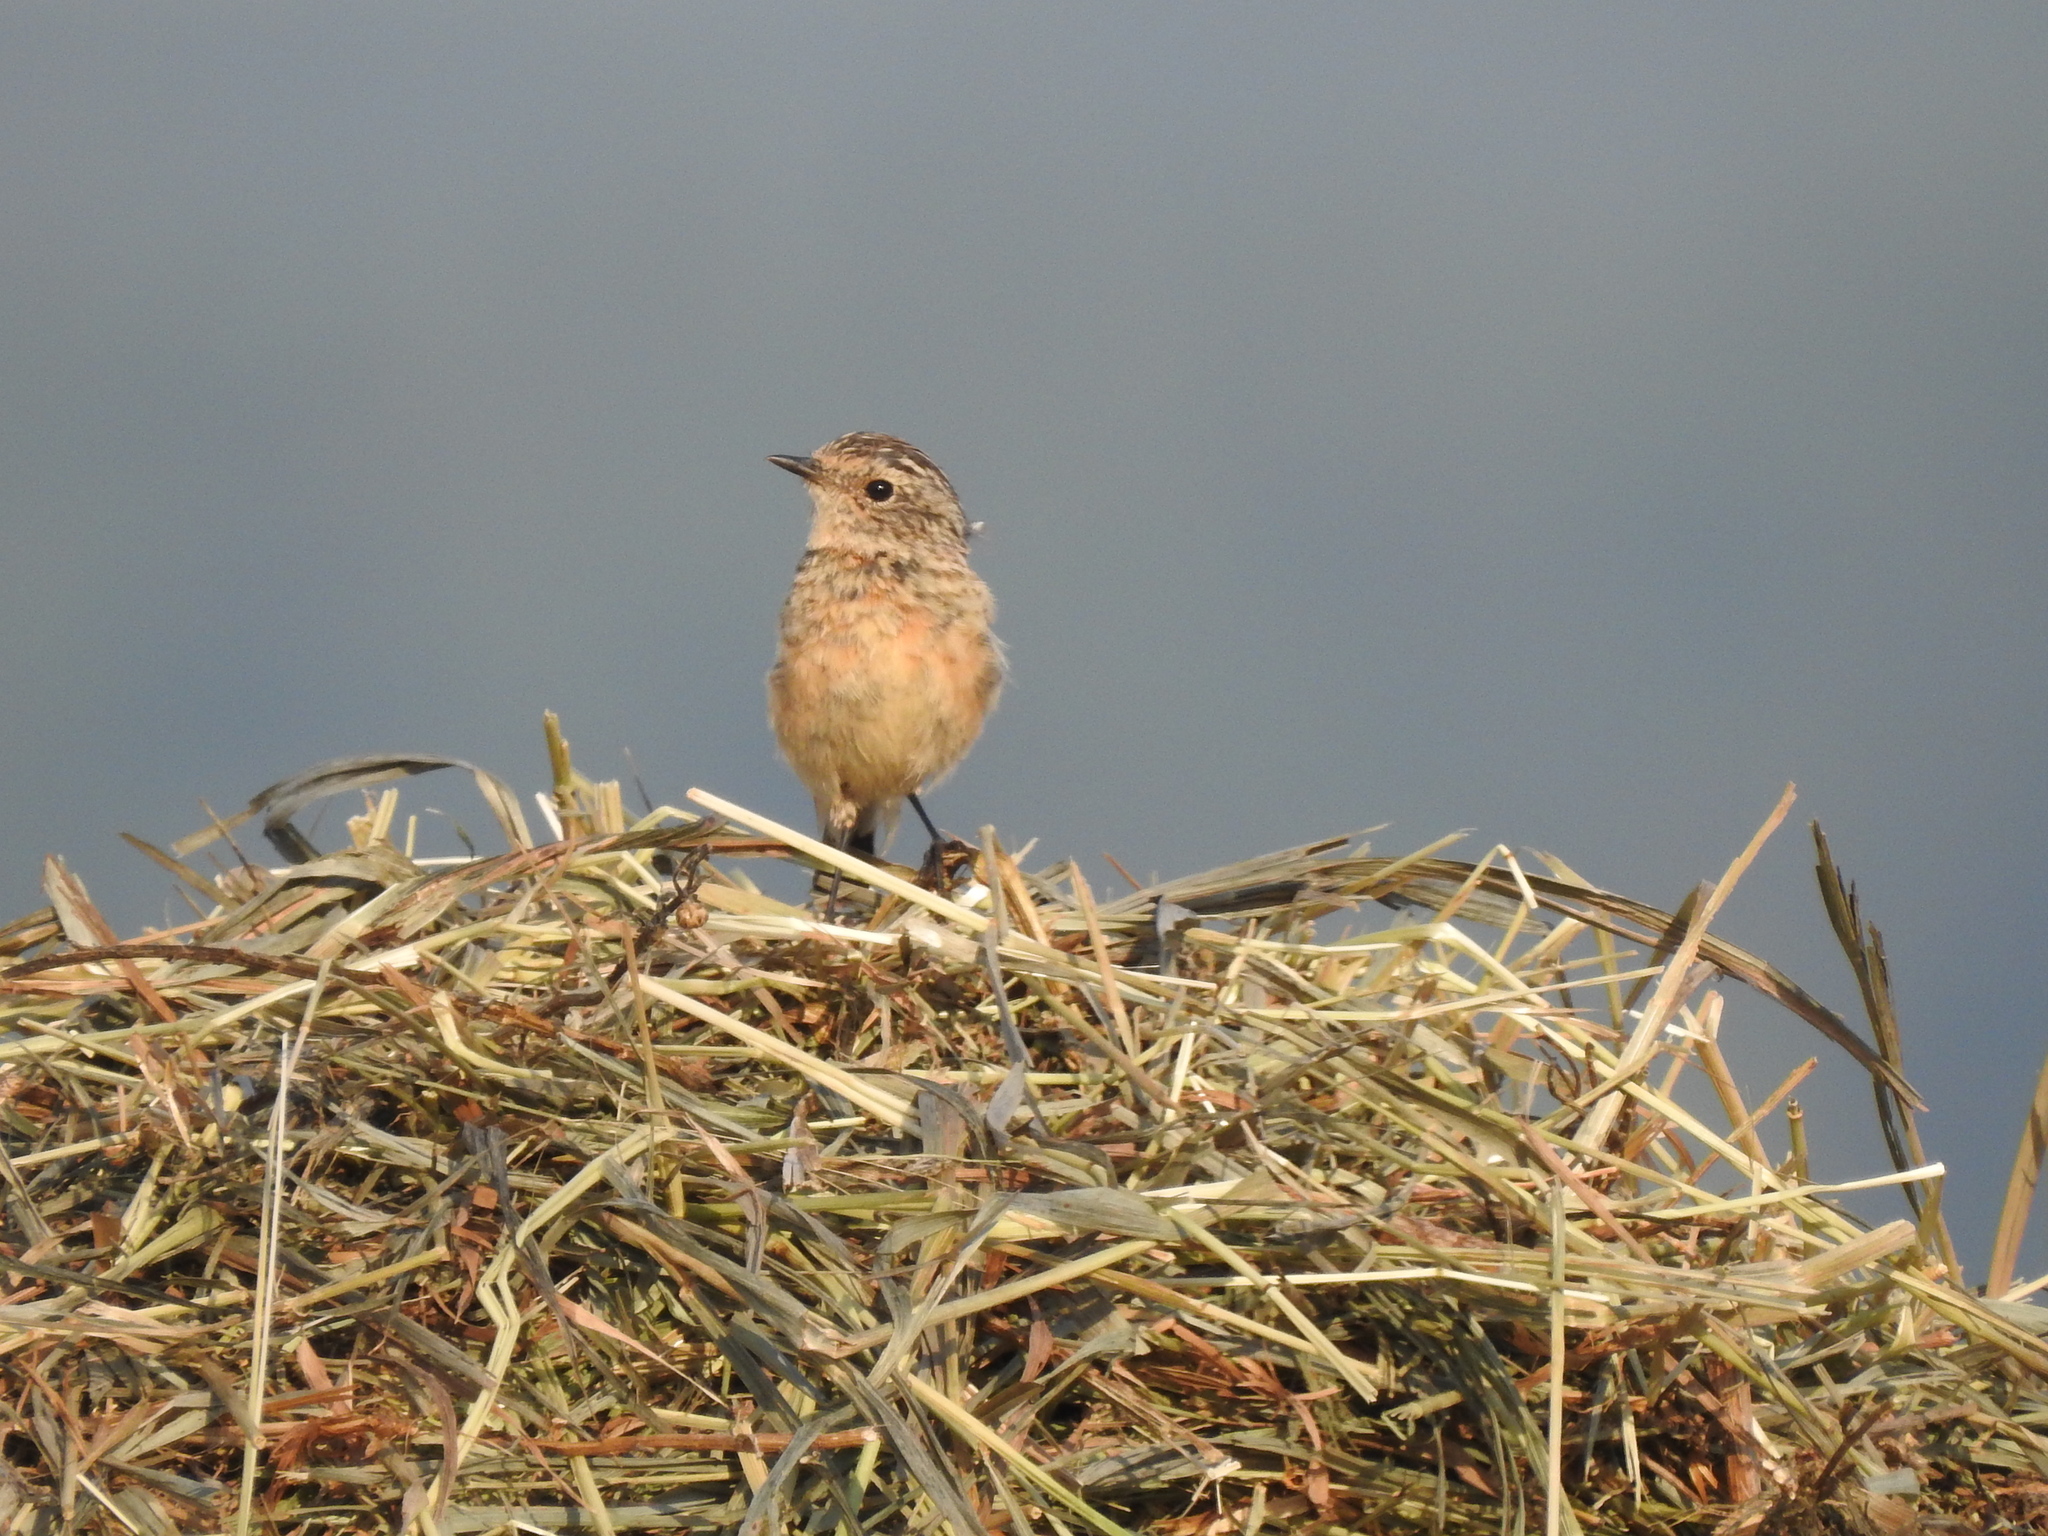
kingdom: Animalia
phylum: Chordata
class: Aves
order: Passeriformes
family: Muscicapidae
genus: Saxicola
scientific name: Saxicola rubetra
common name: Whinchat
